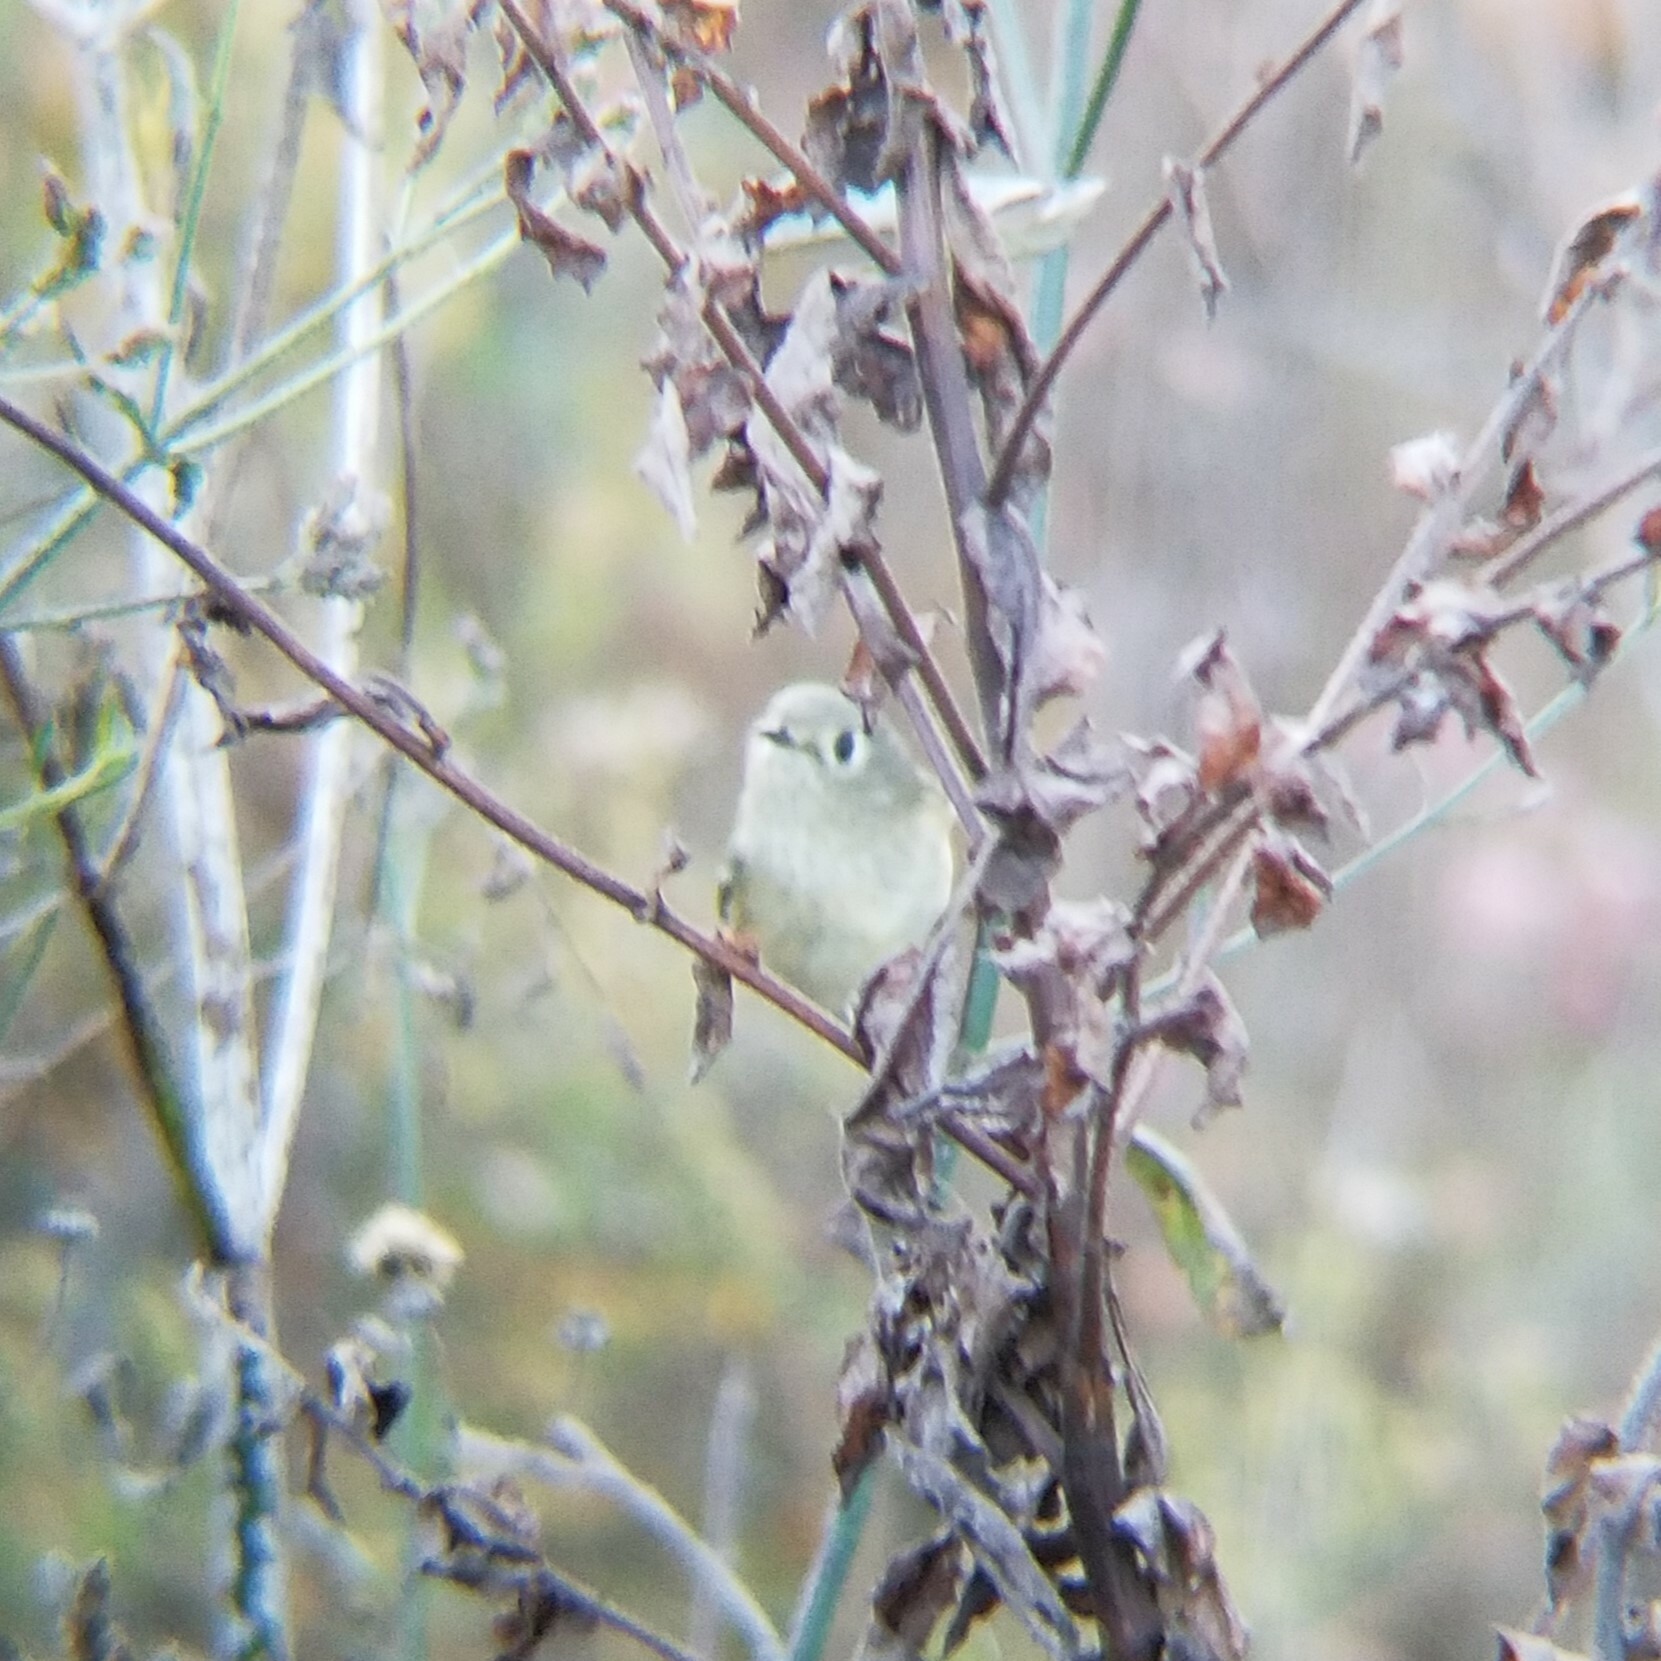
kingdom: Animalia
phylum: Chordata
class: Aves
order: Passeriformes
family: Regulidae
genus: Regulus
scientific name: Regulus calendula
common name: Ruby-crowned kinglet
